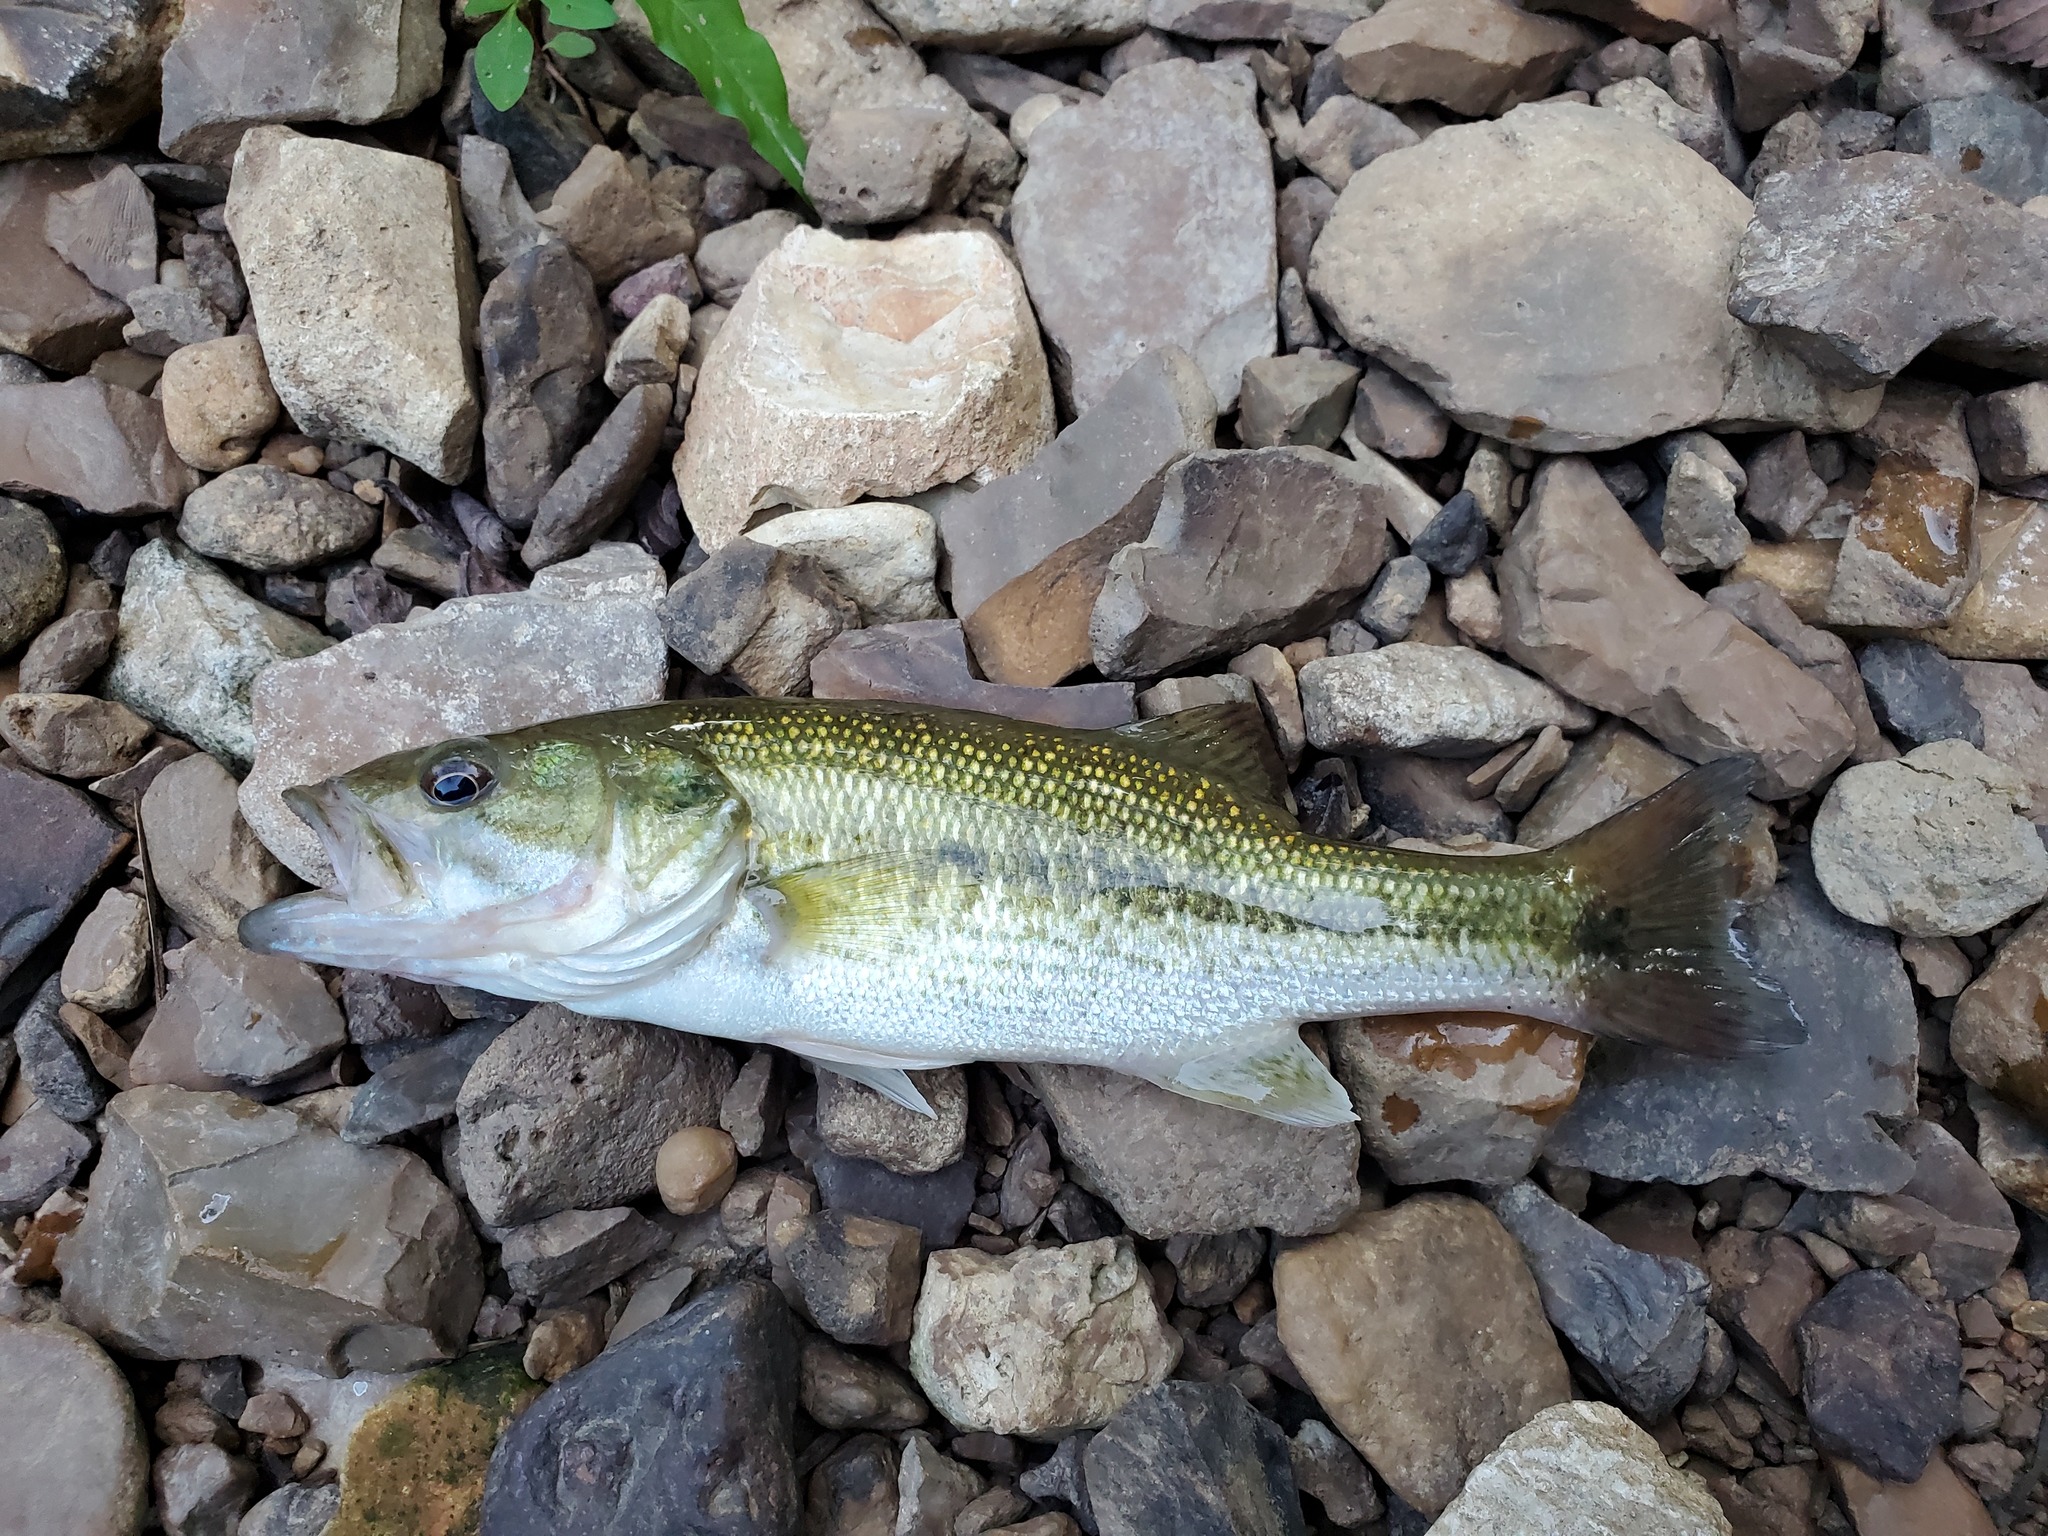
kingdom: Animalia
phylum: Chordata
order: Perciformes
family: Centrarchidae
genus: Micropterus
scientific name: Micropterus punctulatus
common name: Spotted bass
